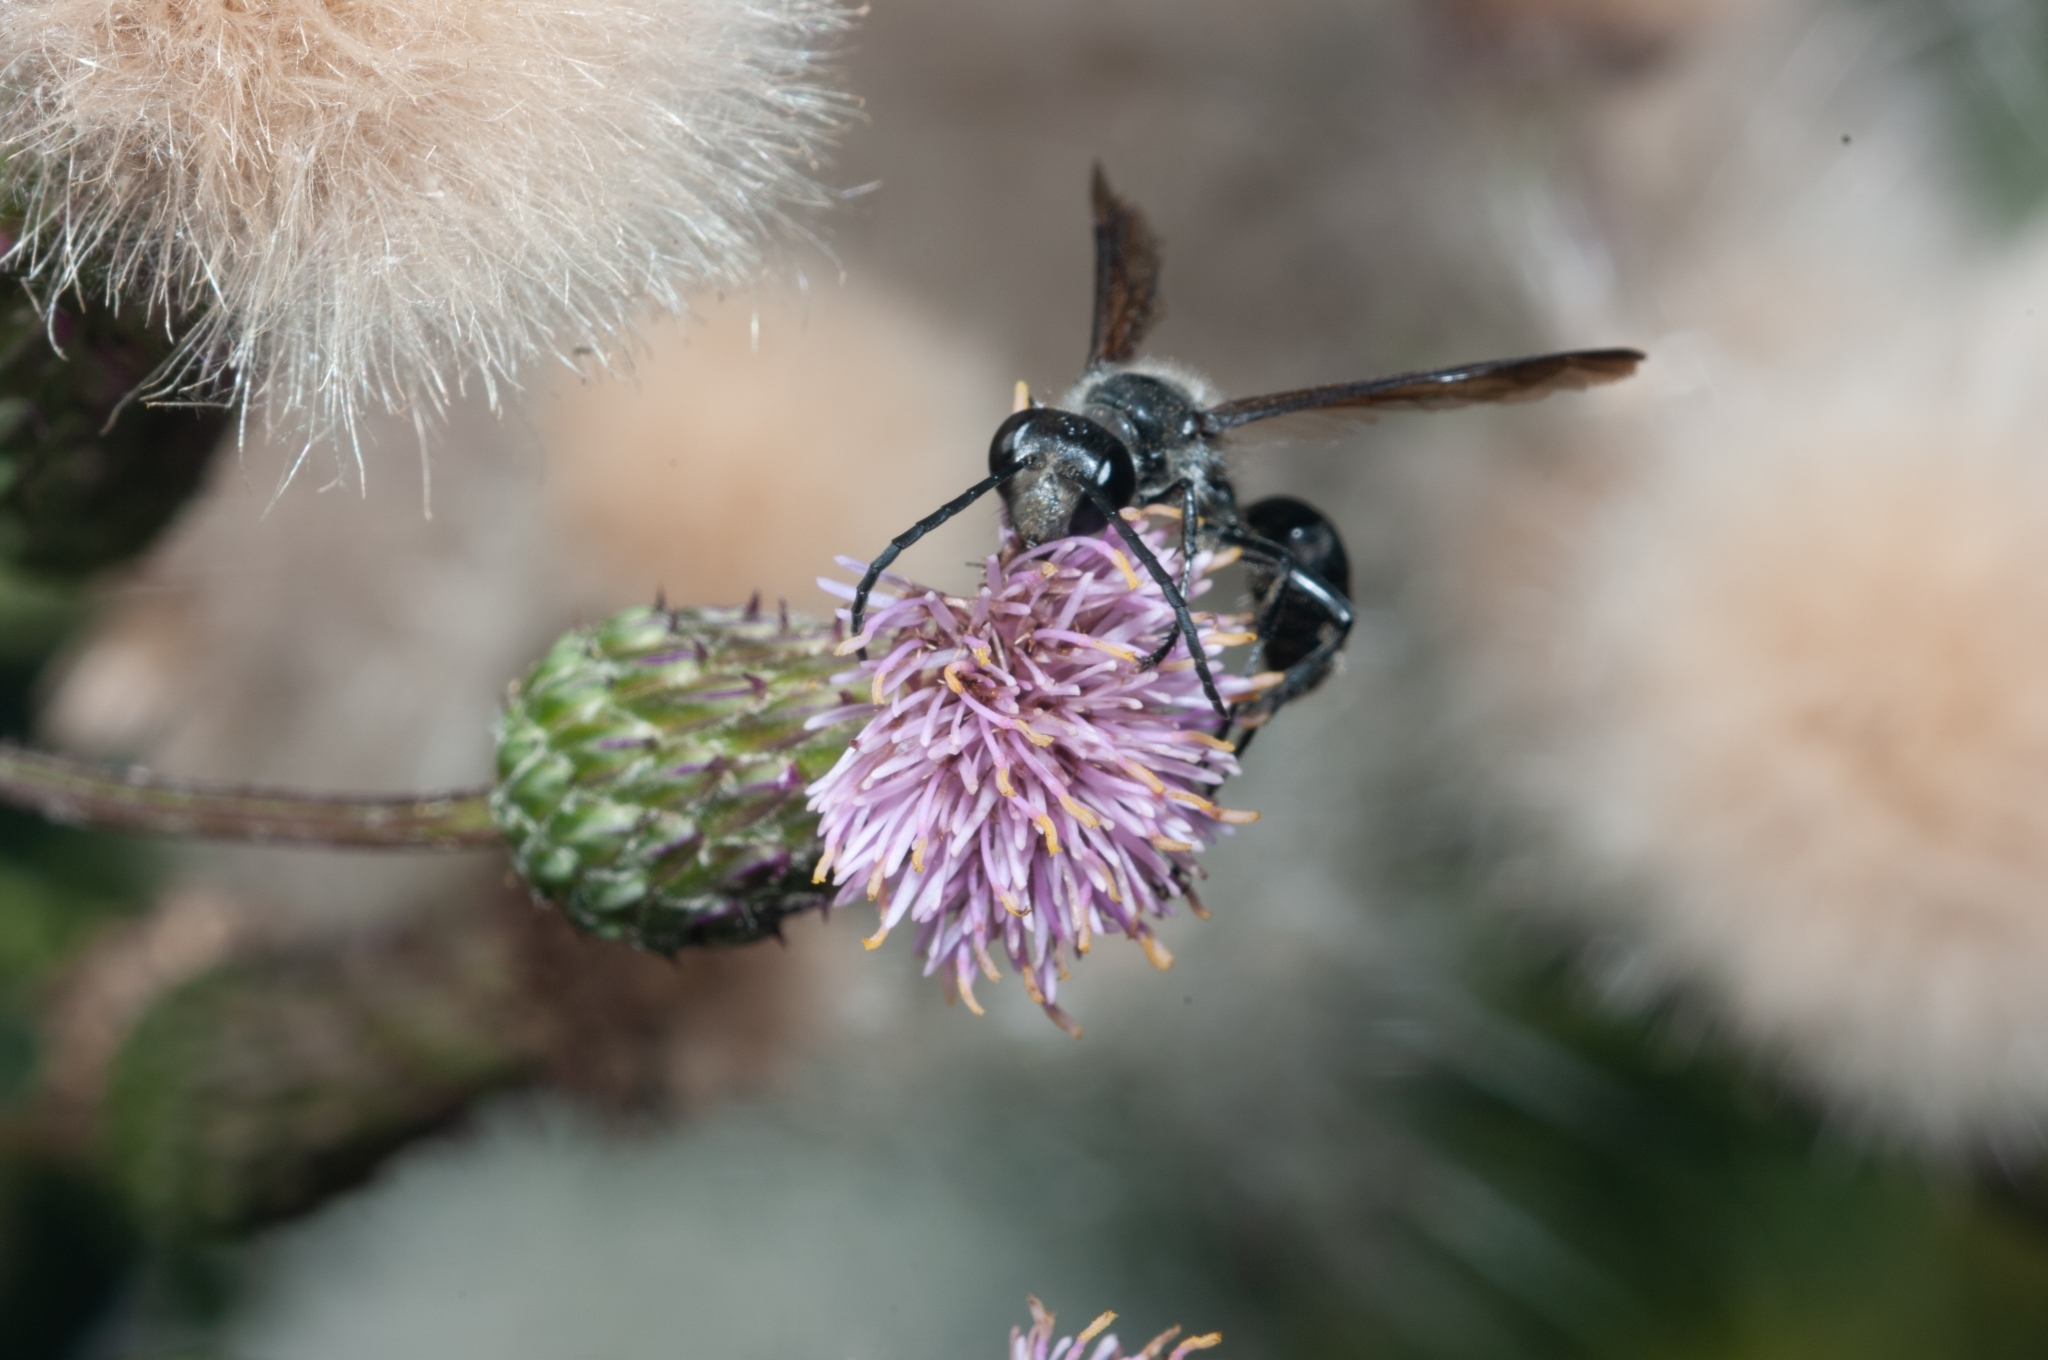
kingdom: Animalia
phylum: Arthropoda
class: Insecta
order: Hymenoptera
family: Sphecidae
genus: Isodontia
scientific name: Isodontia mexicana
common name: Mud dauber
